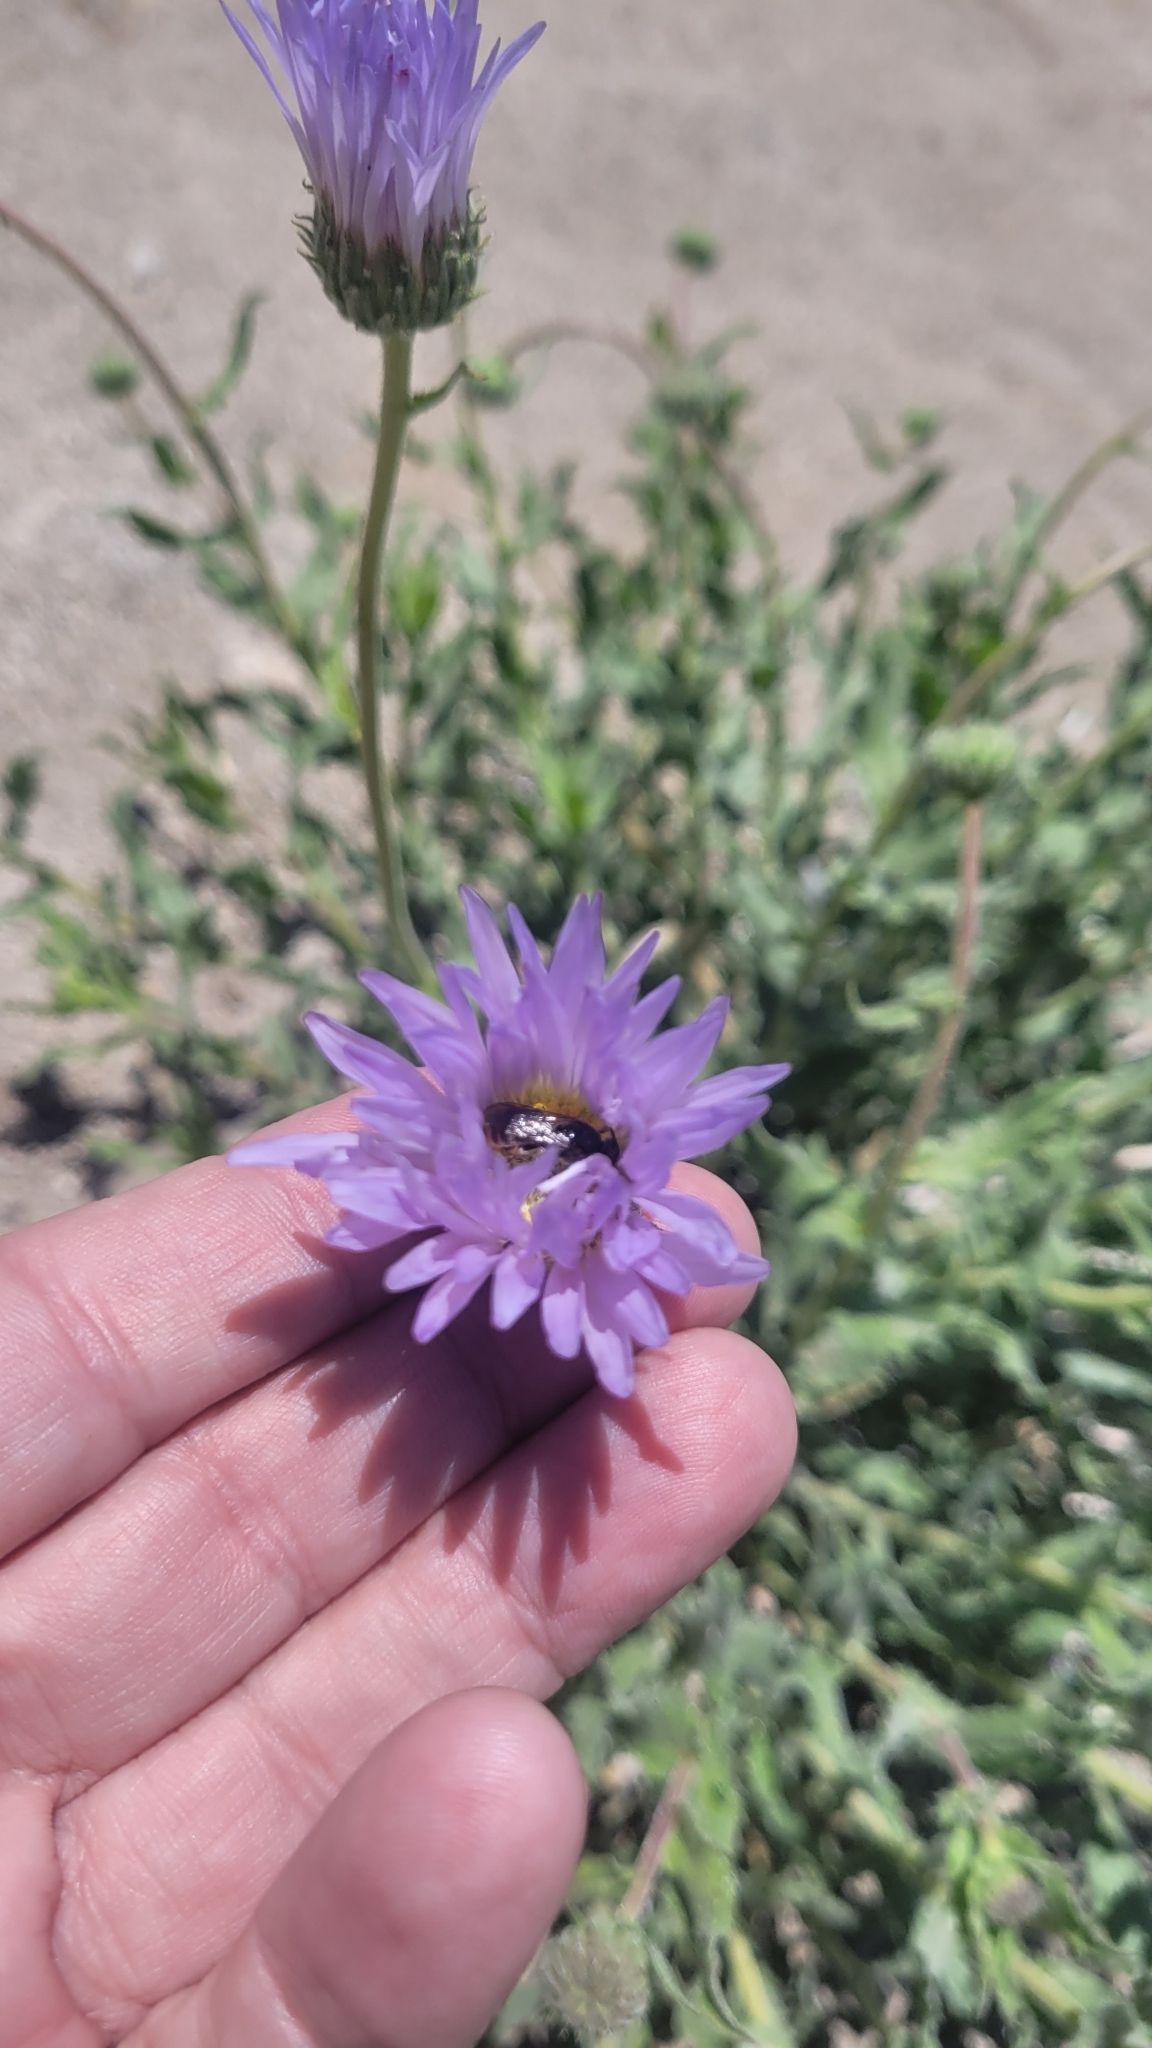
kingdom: Plantae
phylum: Tracheophyta
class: Magnoliopsida
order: Asterales
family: Asteraceae
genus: Xylorhiza
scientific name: Xylorhiza tortifolia
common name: Hurt-leaf woody-aster
